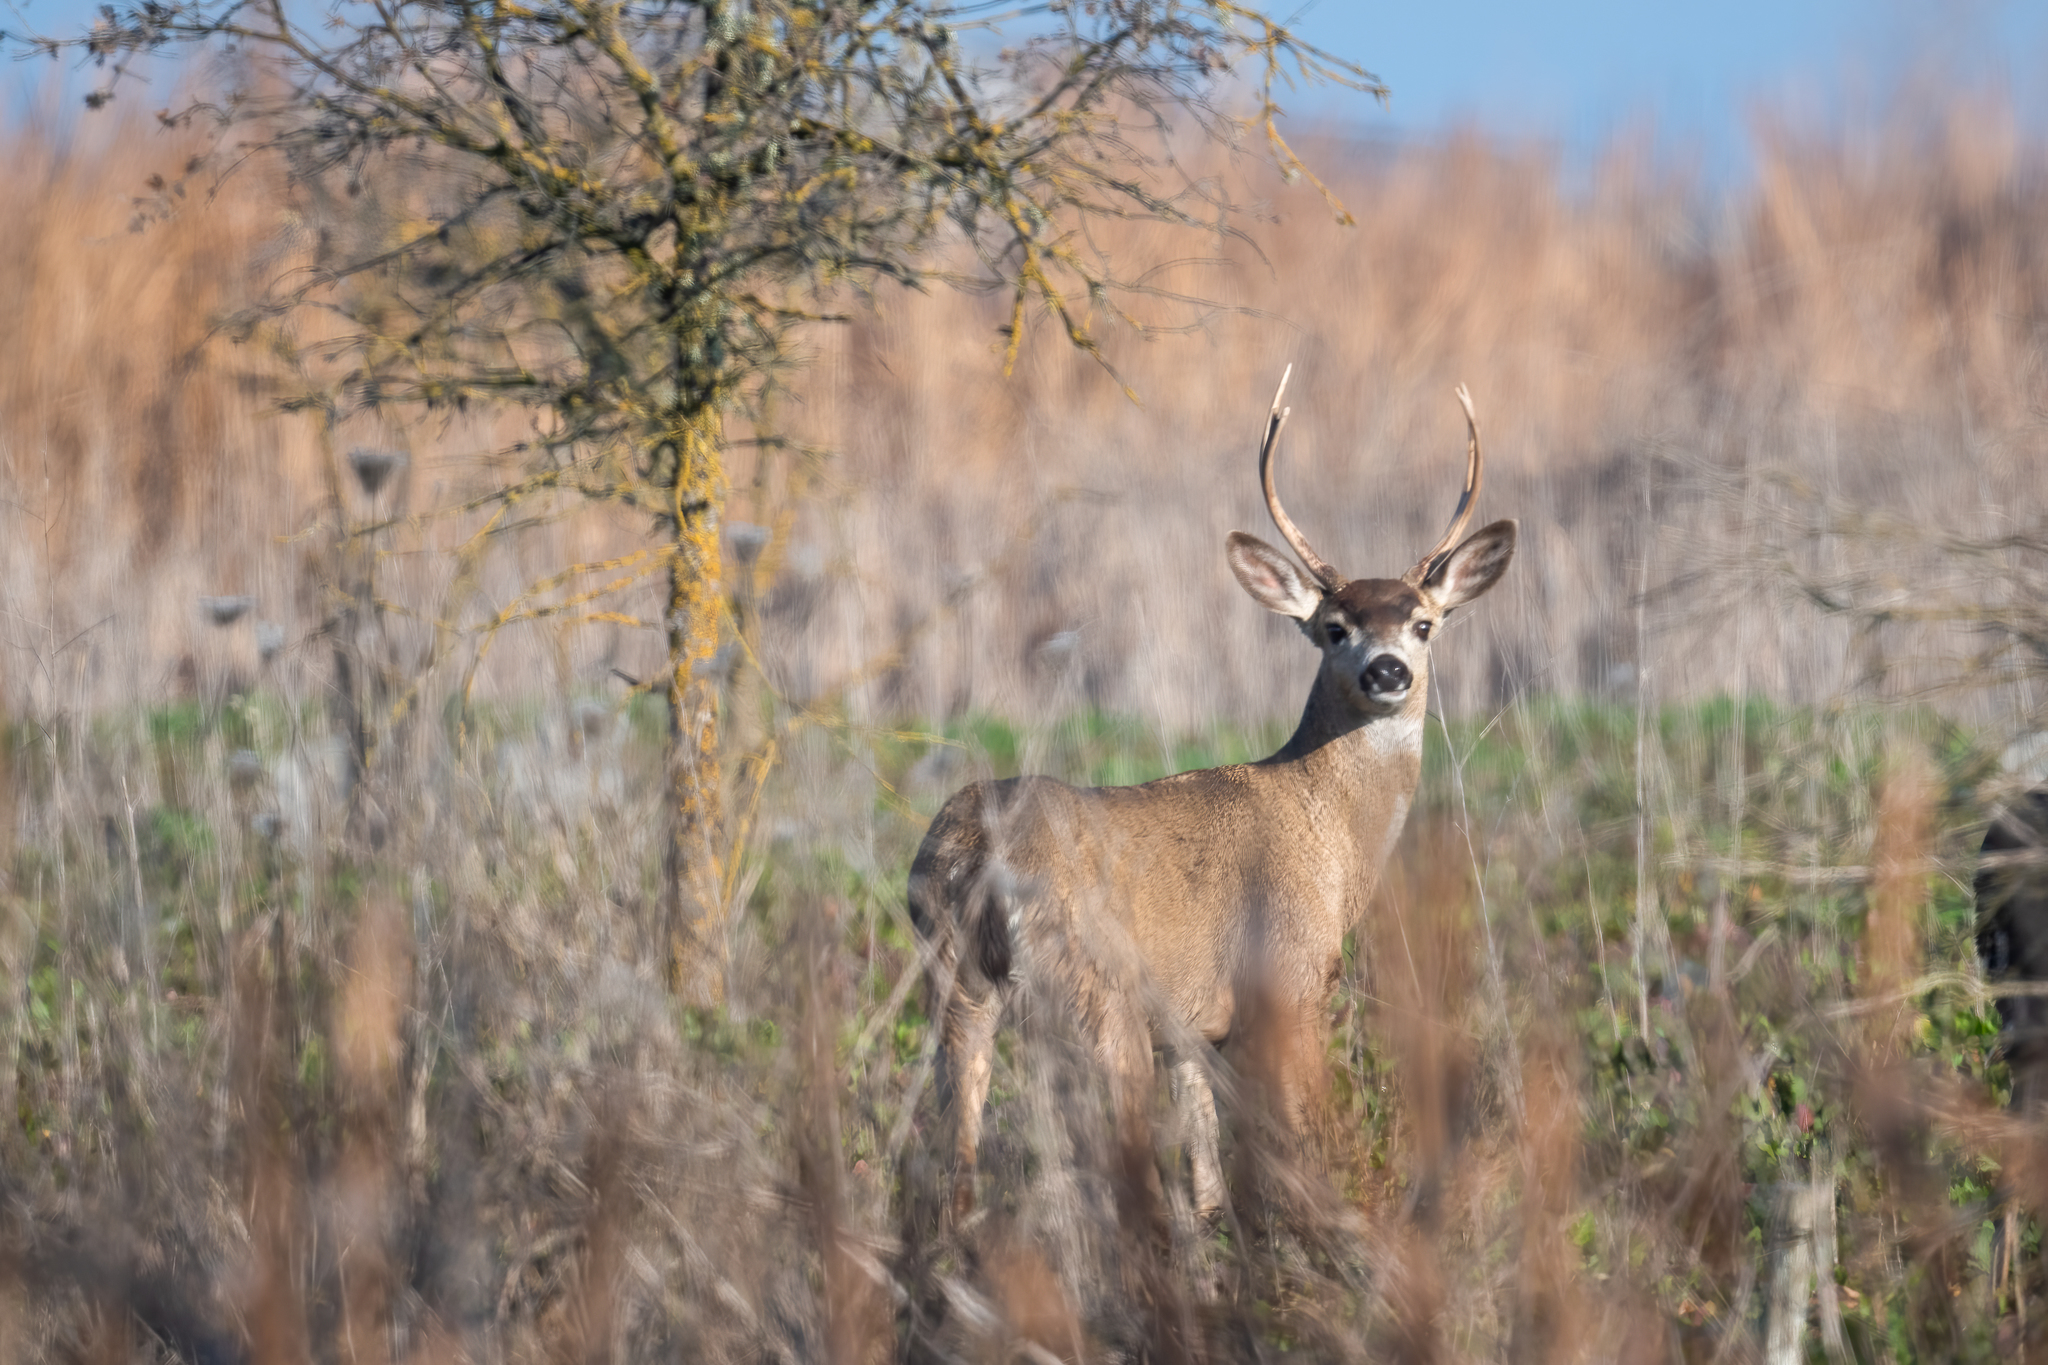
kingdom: Animalia
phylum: Chordata
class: Mammalia
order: Artiodactyla
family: Cervidae
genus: Odocoileus
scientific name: Odocoileus hemionus
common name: Mule deer
